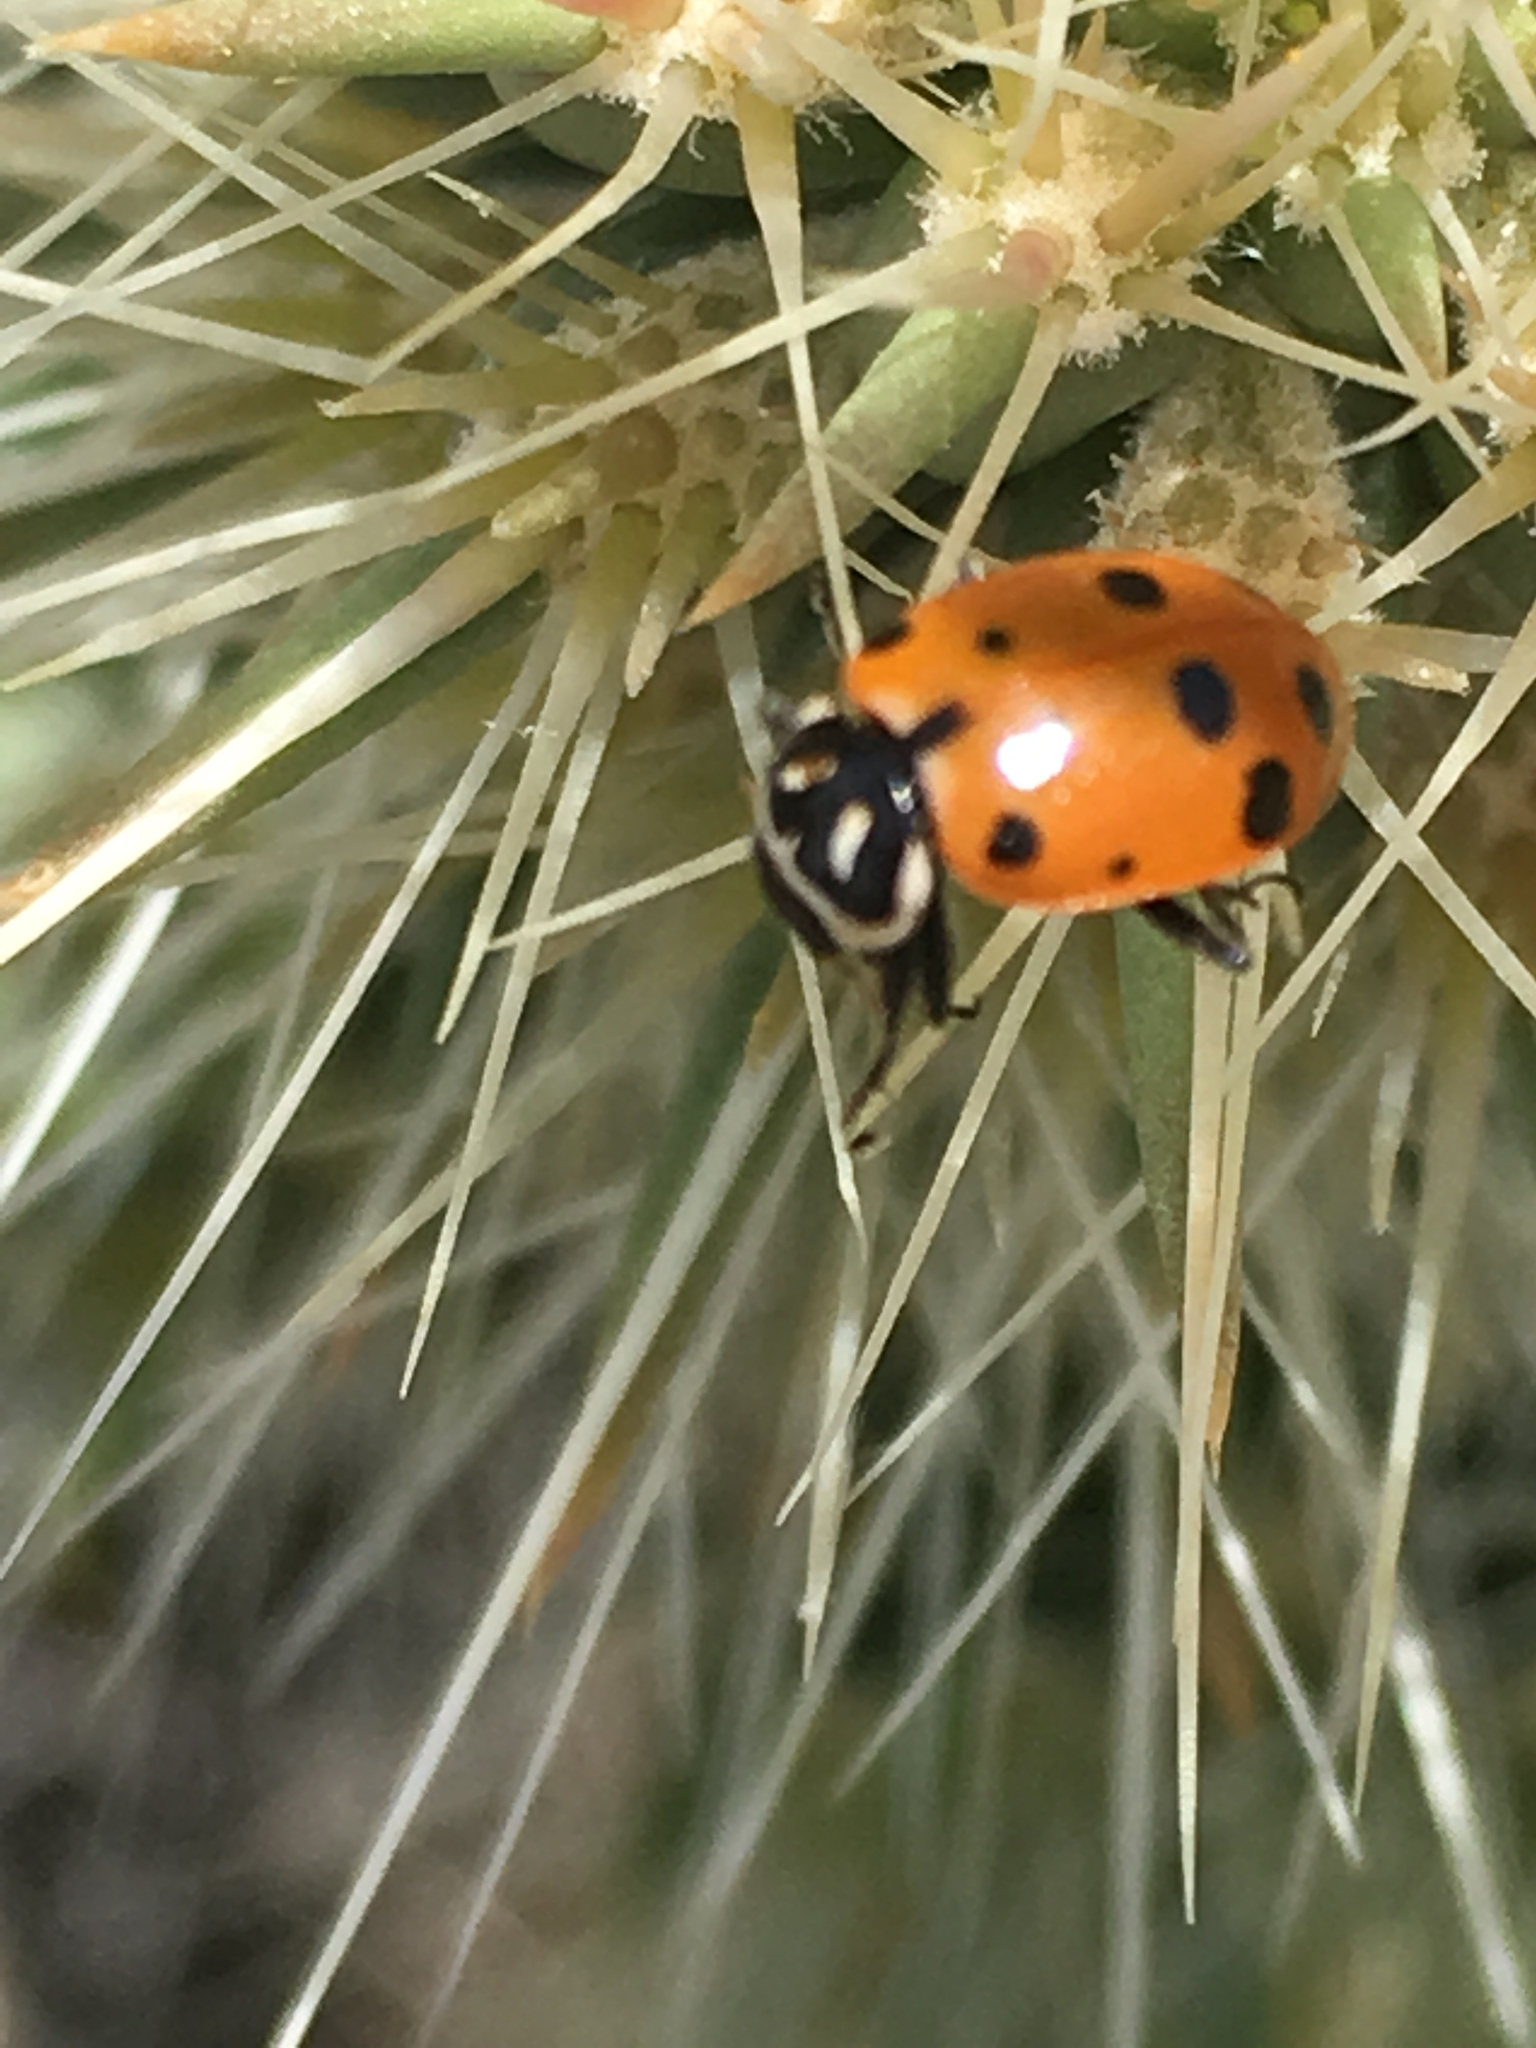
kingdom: Animalia
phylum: Arthropoda
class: Insecta
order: Coleoptera
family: Coccinellidae
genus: Hippodamia
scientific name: Hippodamia convergens
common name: Convergent lady beetle
